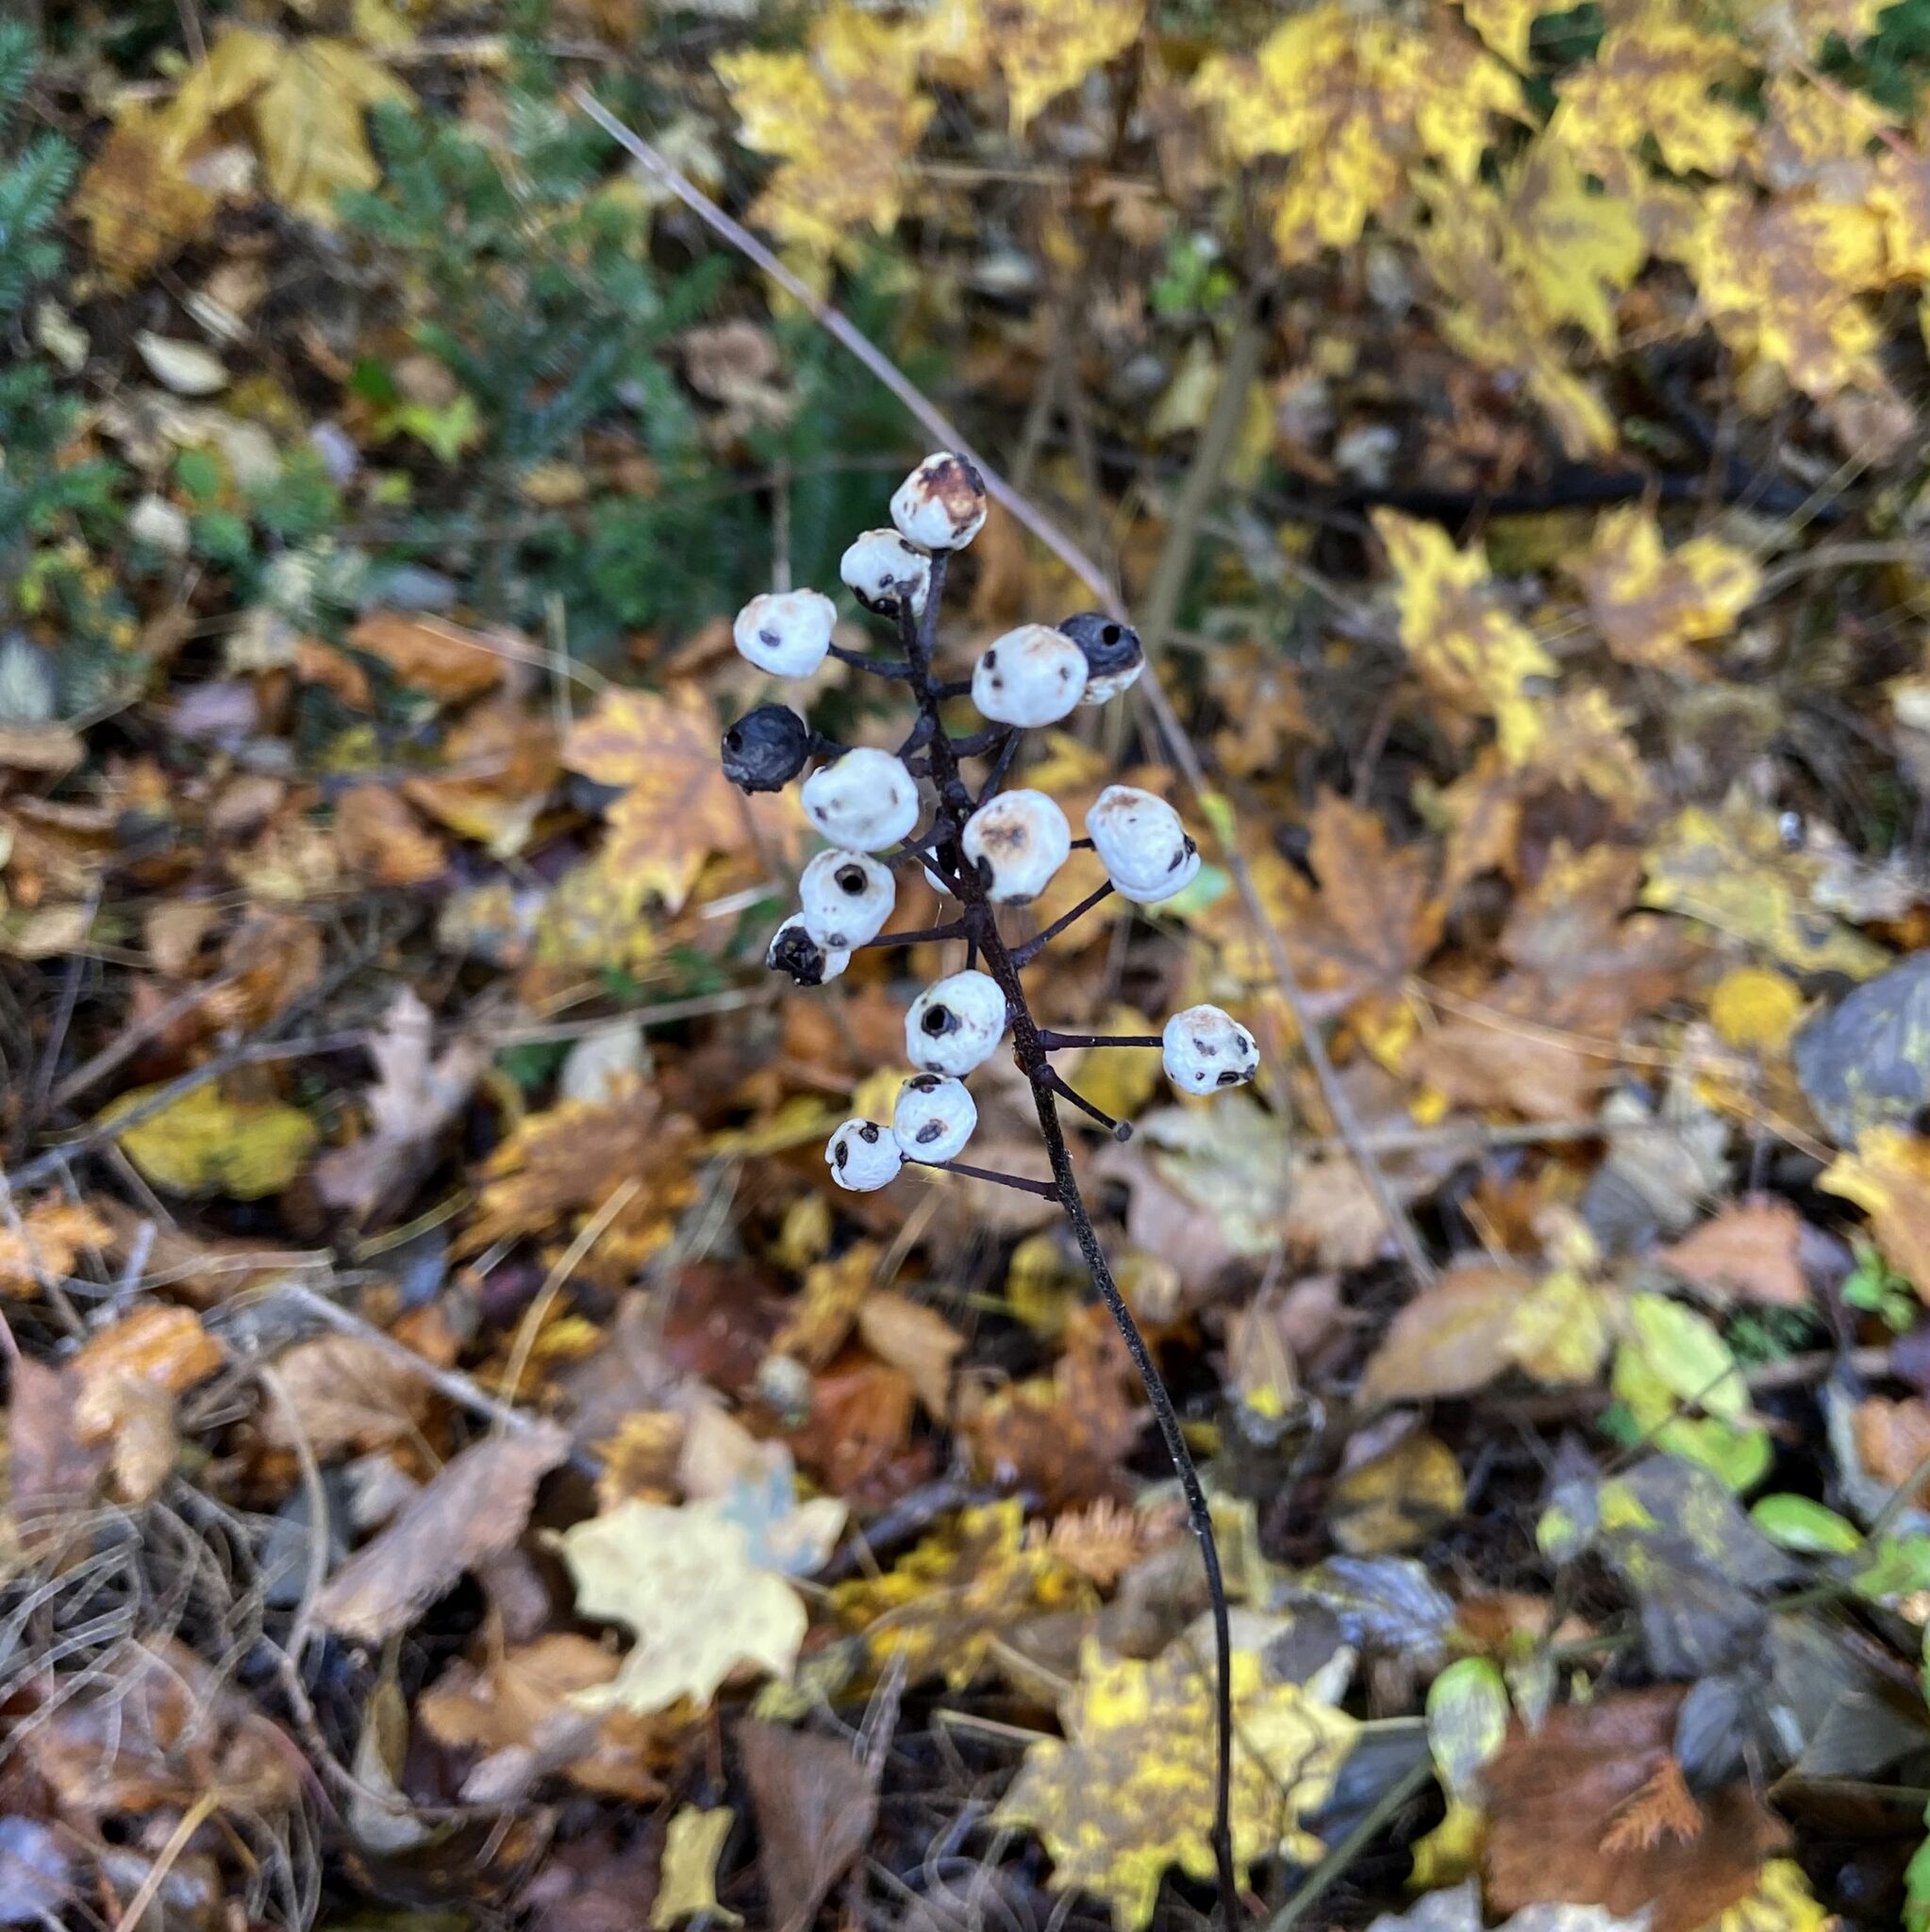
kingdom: Plantae
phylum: Tracheophyta
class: Magnoliopsida
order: Ranunculales
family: Ranunculaceae
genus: Actaea
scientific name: Actaea rubra
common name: Red baneberry
